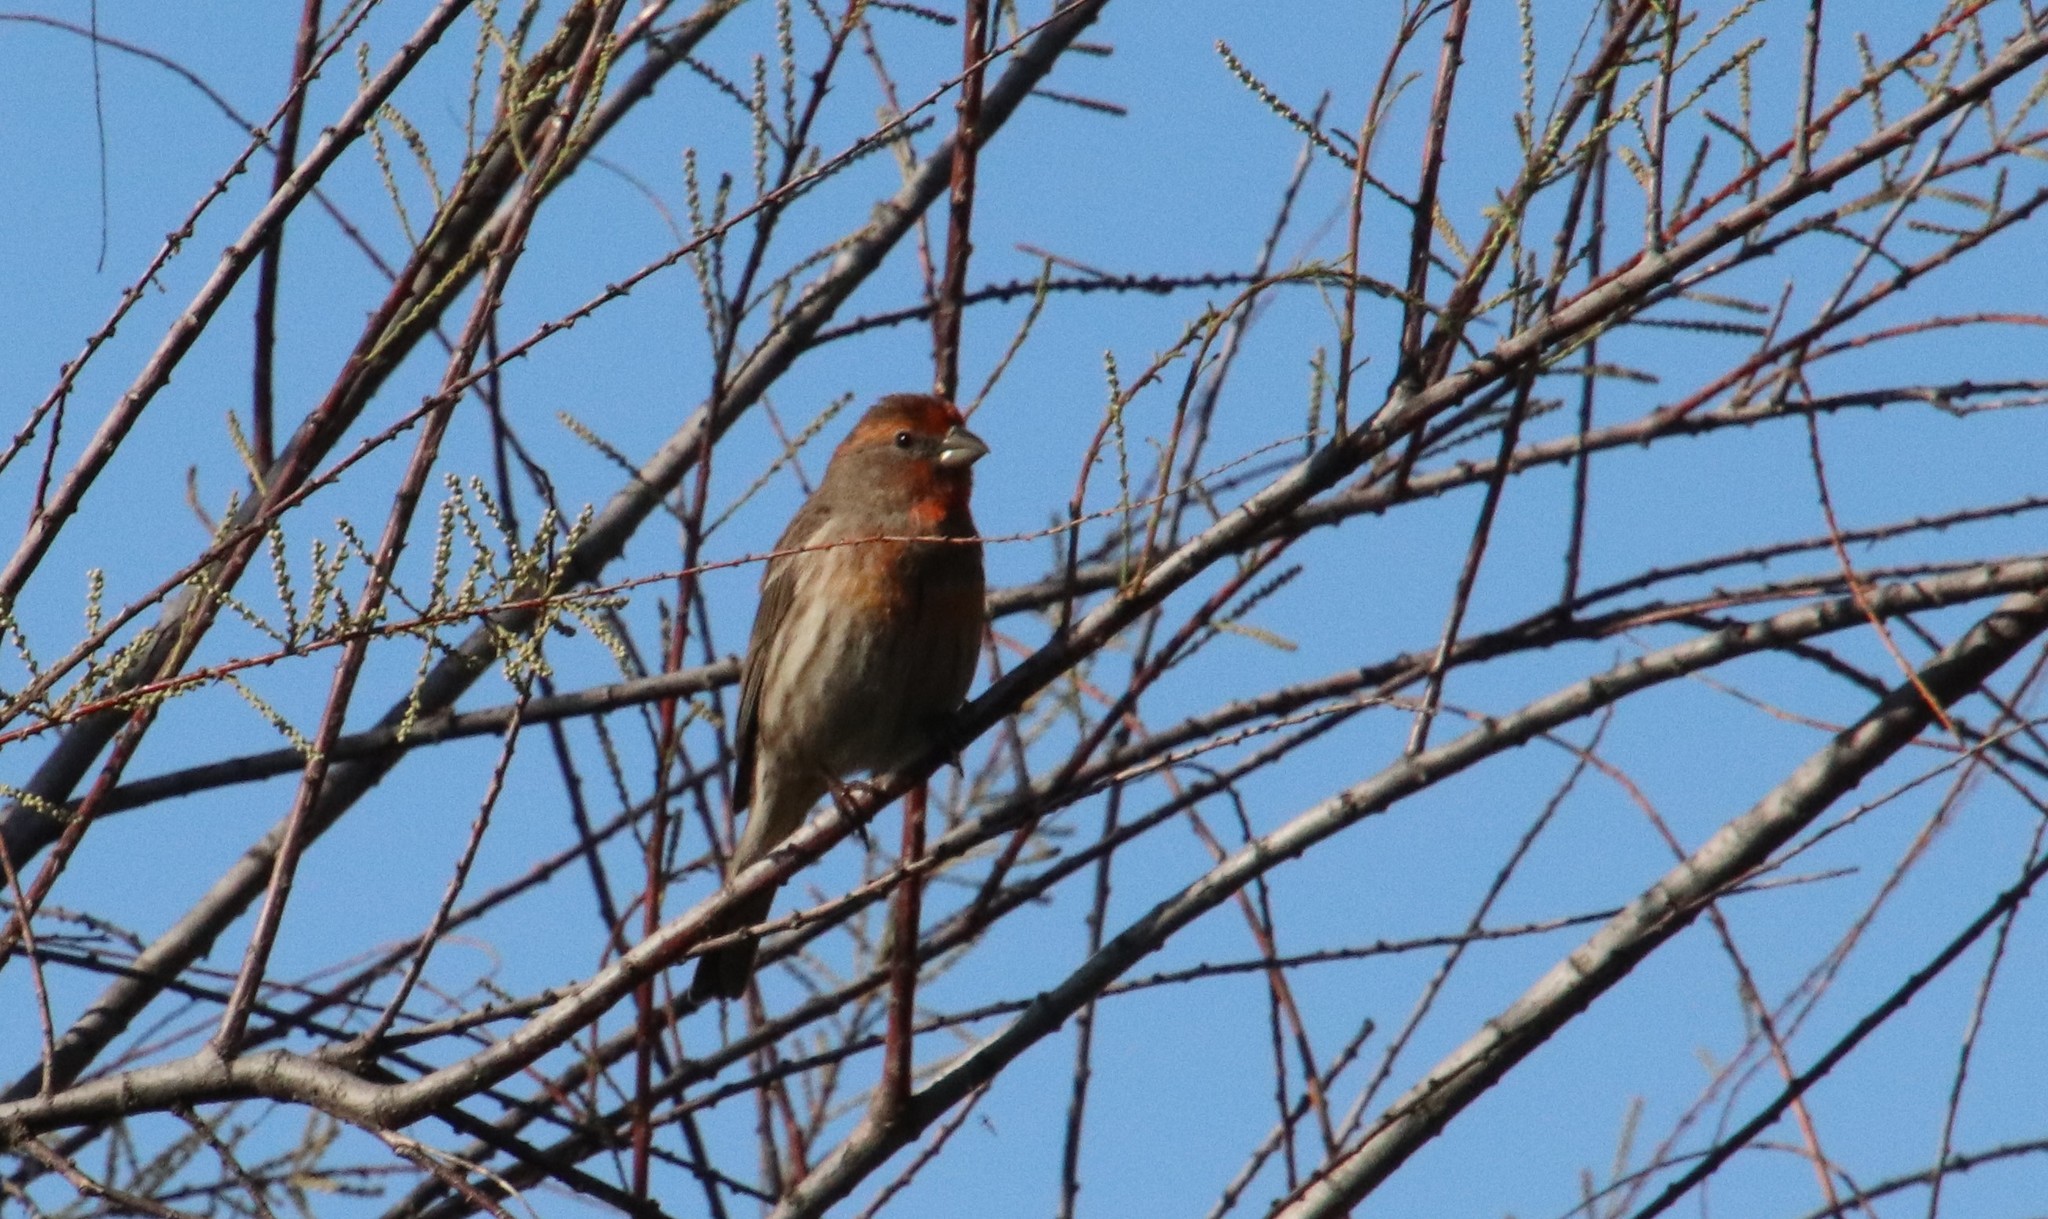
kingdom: Animalia
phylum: Chordata
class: Aves
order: Passeriformes
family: Fringillidae
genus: Haemorhous
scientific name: Haemorhous mexicanus
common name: House finch
